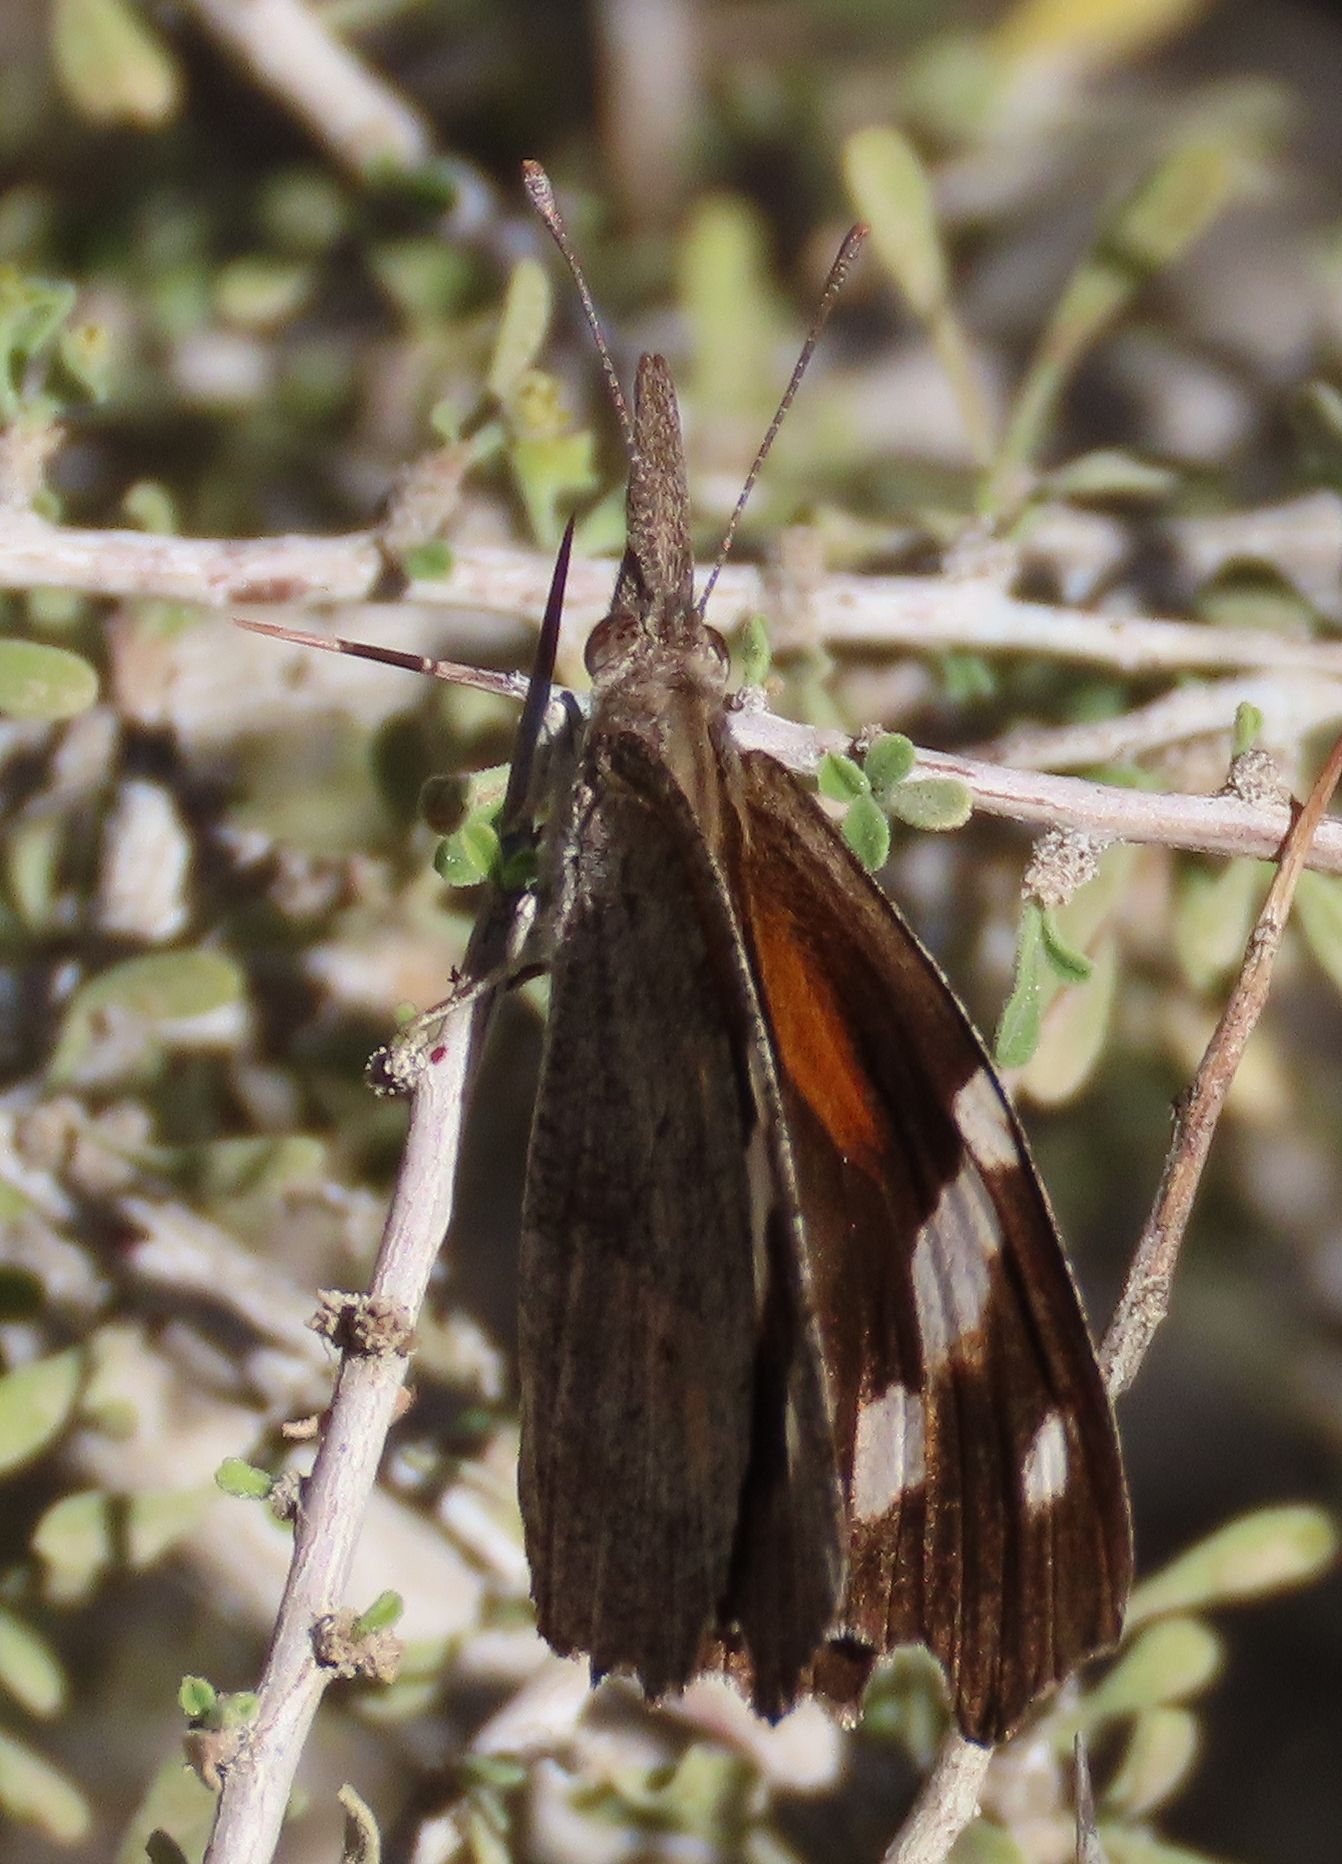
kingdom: Animalia
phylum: Arthropoda
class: Insecta
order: Lepidoptera
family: Nymphalidae
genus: Libytheana
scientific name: Libytheana carinenta
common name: American snout
